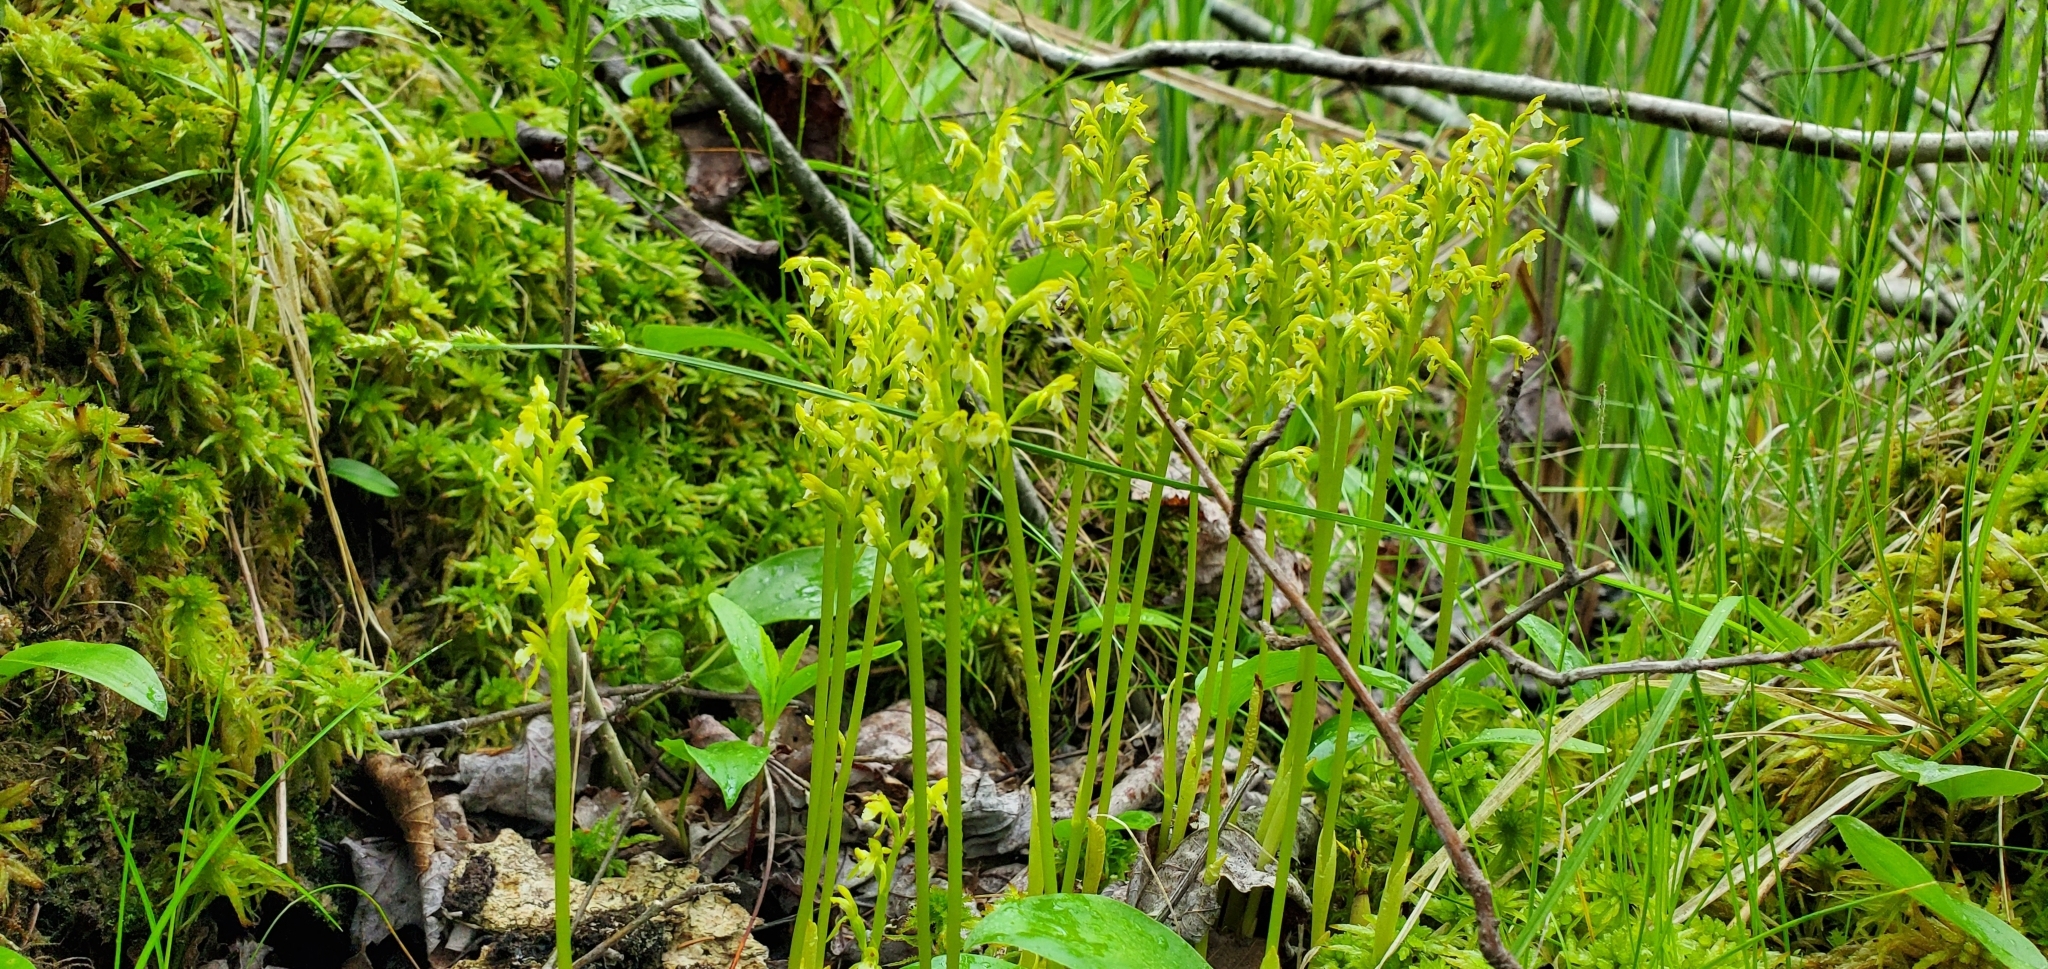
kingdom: Plantae
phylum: Tracheophyta
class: Liliopsida
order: Asparagales
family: Orchidaceae
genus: Corallorhiza
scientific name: Corallorhiza trifida
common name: Yellow coralroot
